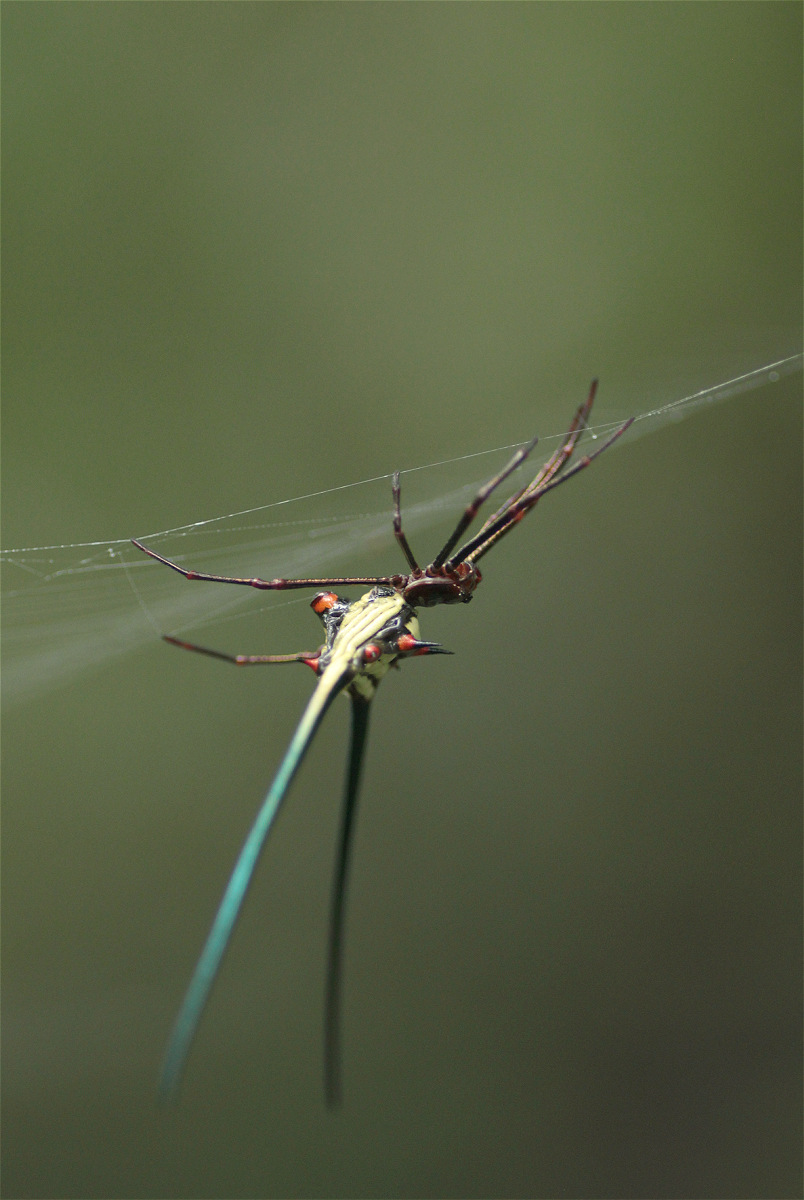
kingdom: Animalia
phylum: Arthropoda
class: Arachnida
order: Araneae
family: Araneidae
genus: Micrathena
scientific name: Micrathena cyanospina
